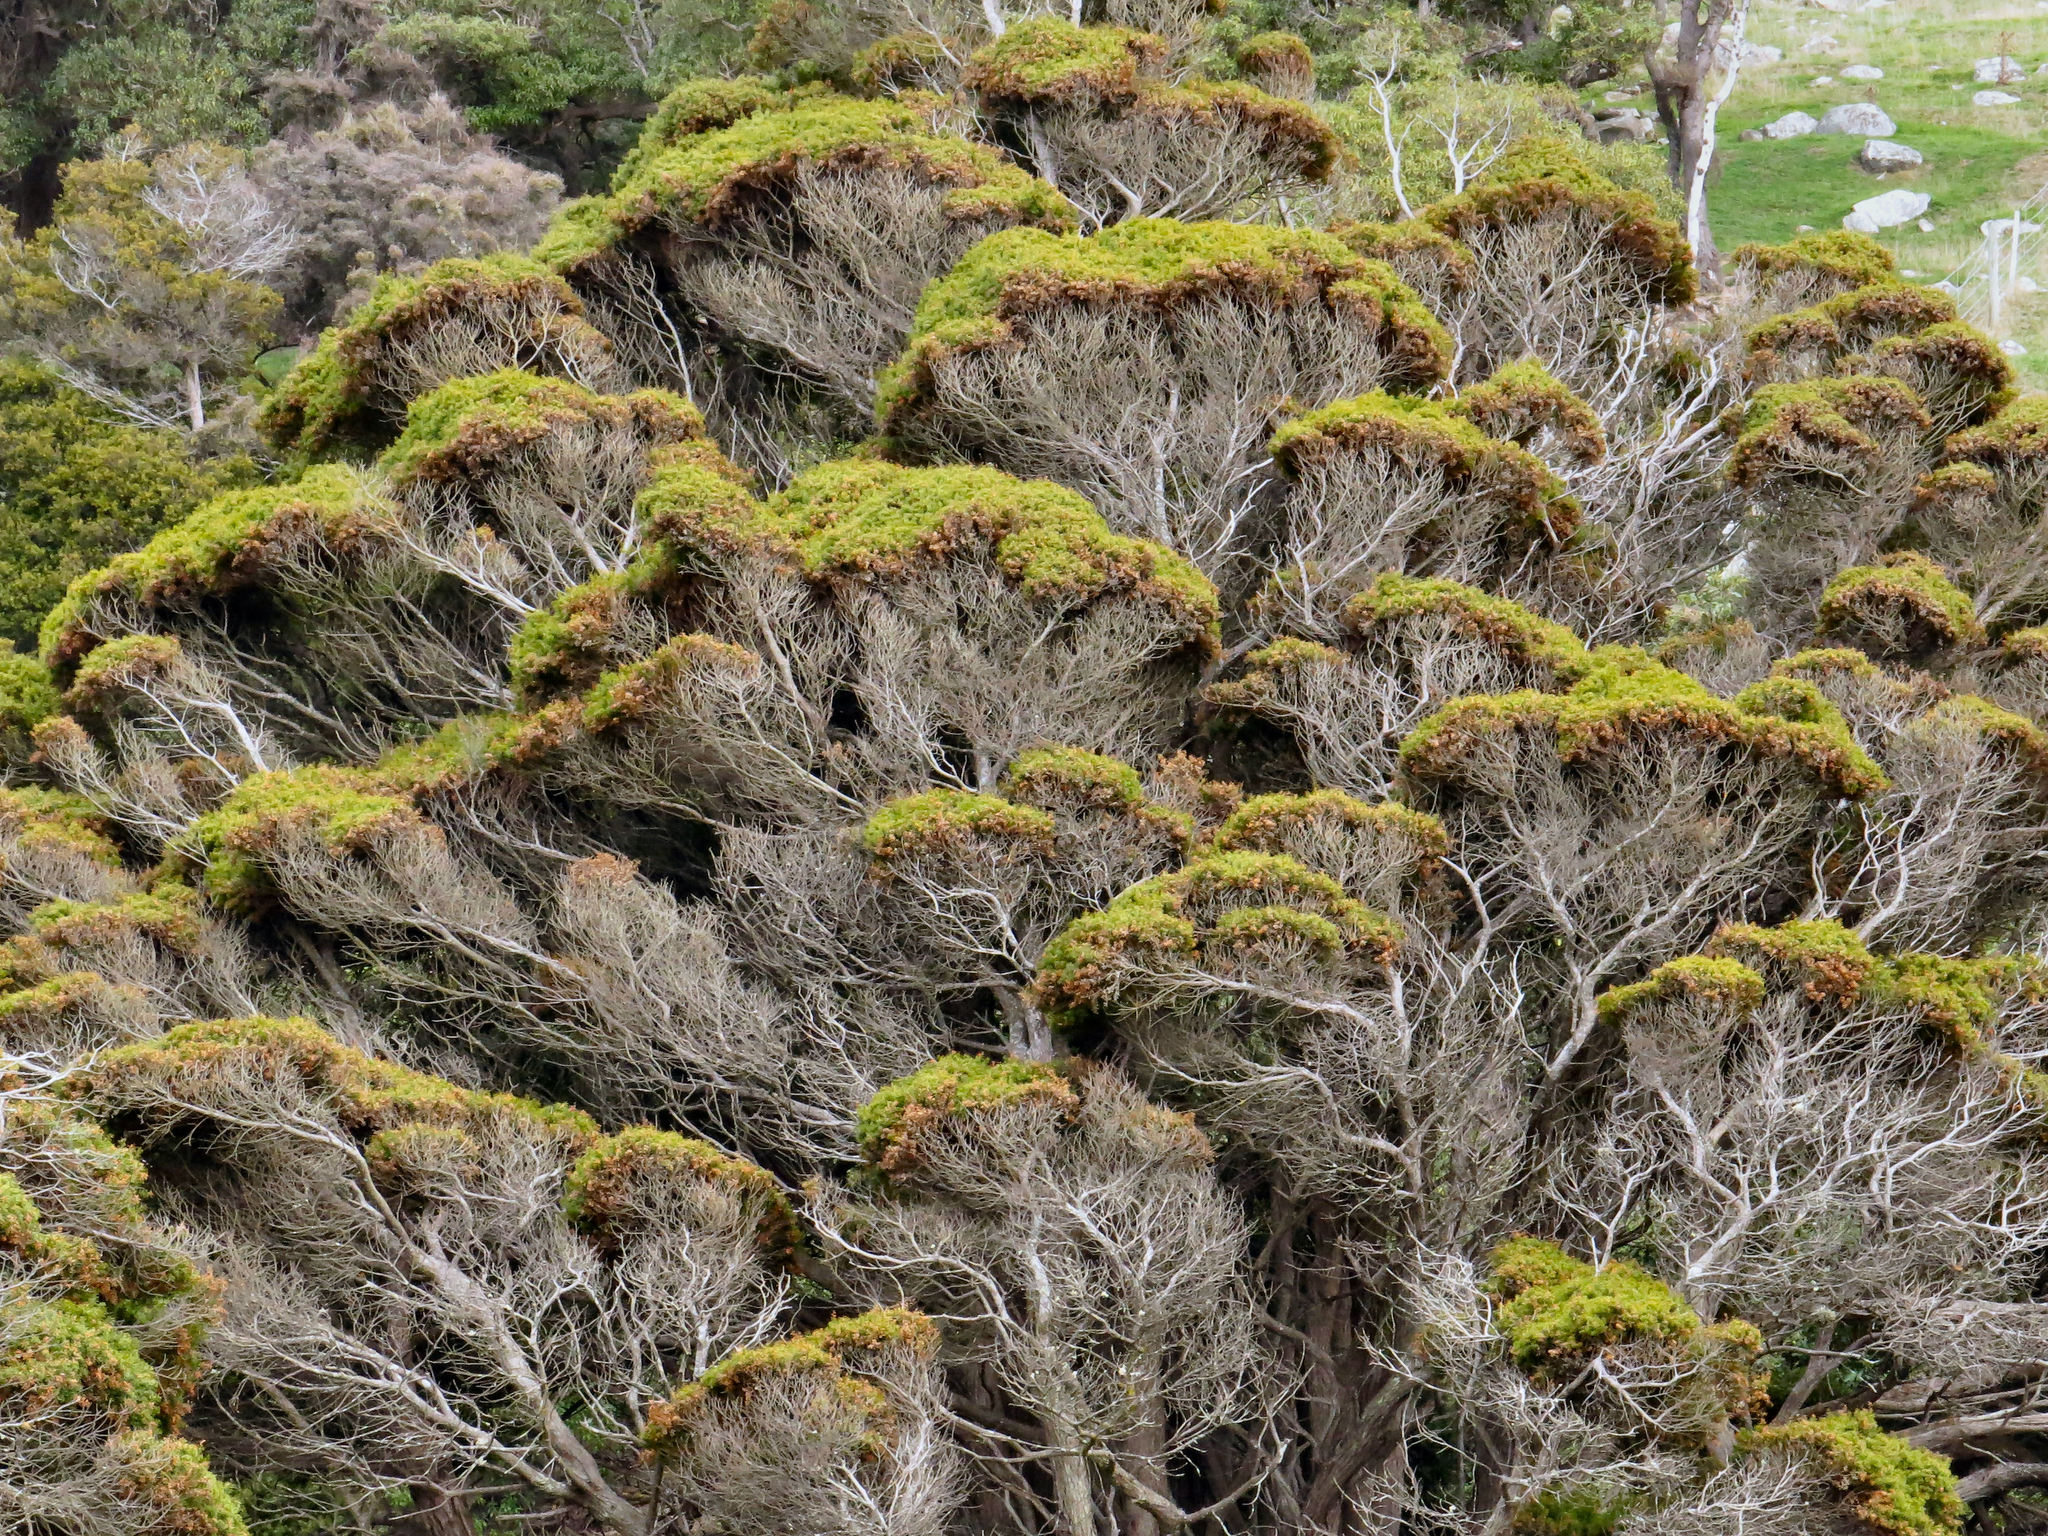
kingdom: Plantae
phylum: Tracheophyta
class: Pinopsida
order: Pinales
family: Podocarpaceae
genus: Podocarpus
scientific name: Podocarpus totara
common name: Totara
